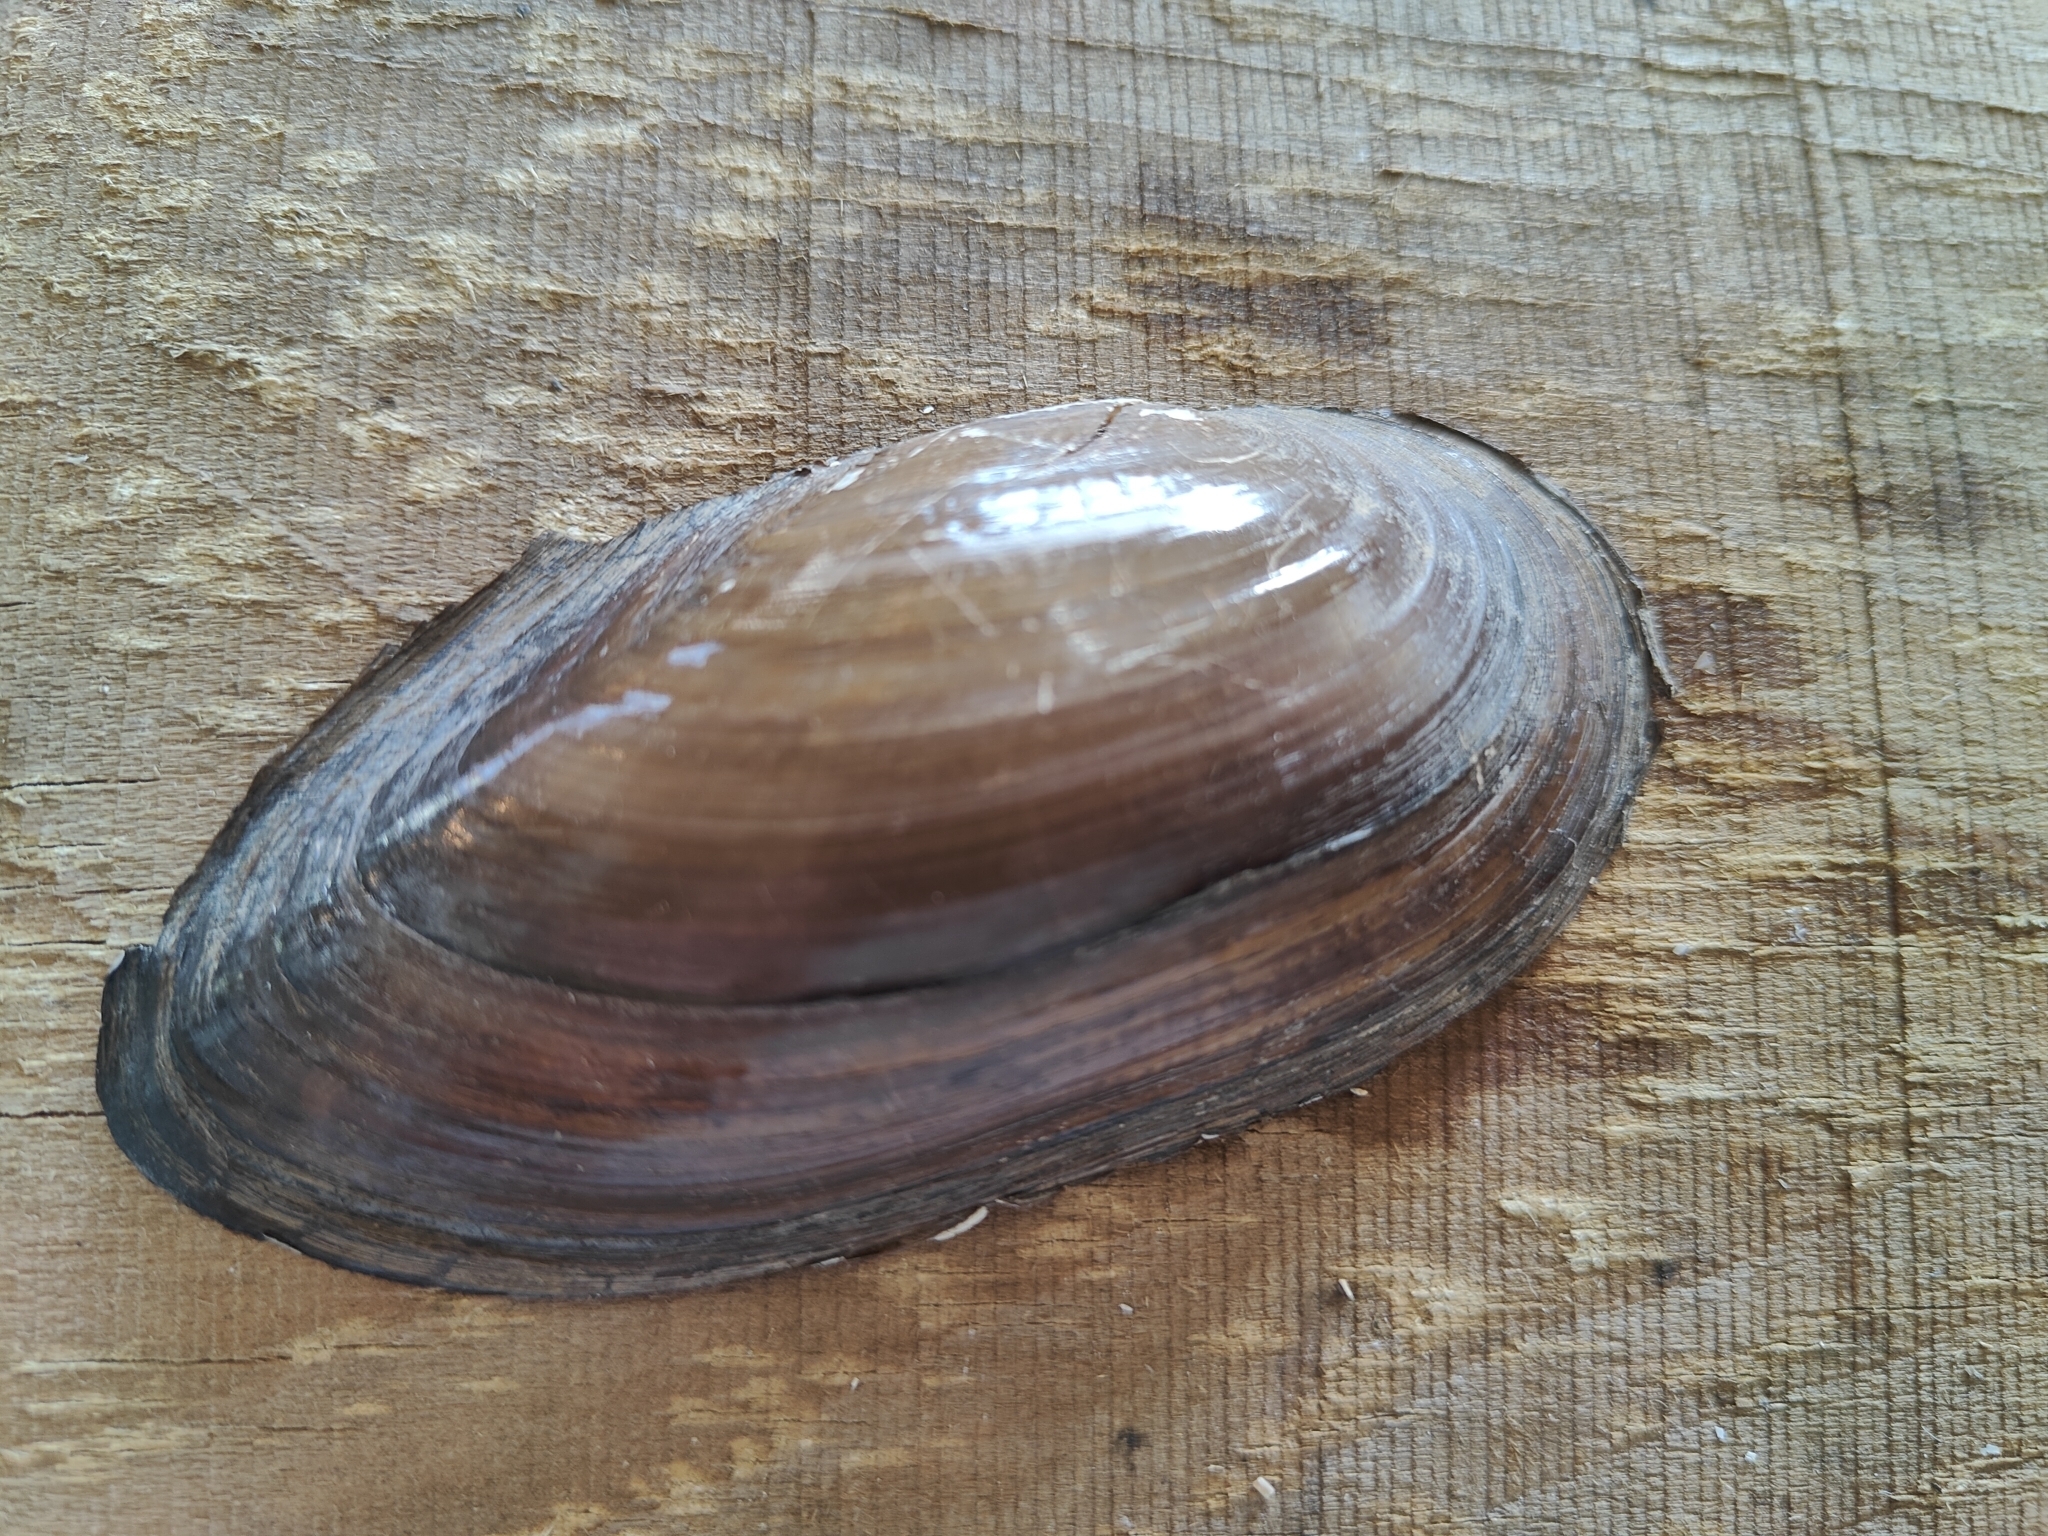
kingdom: Animalia
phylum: Mollusca
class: Bivalvia
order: Unionida
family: Unionidae
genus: Utterbackia
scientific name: Utterbackia imbecillis
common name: Paper pondshell
